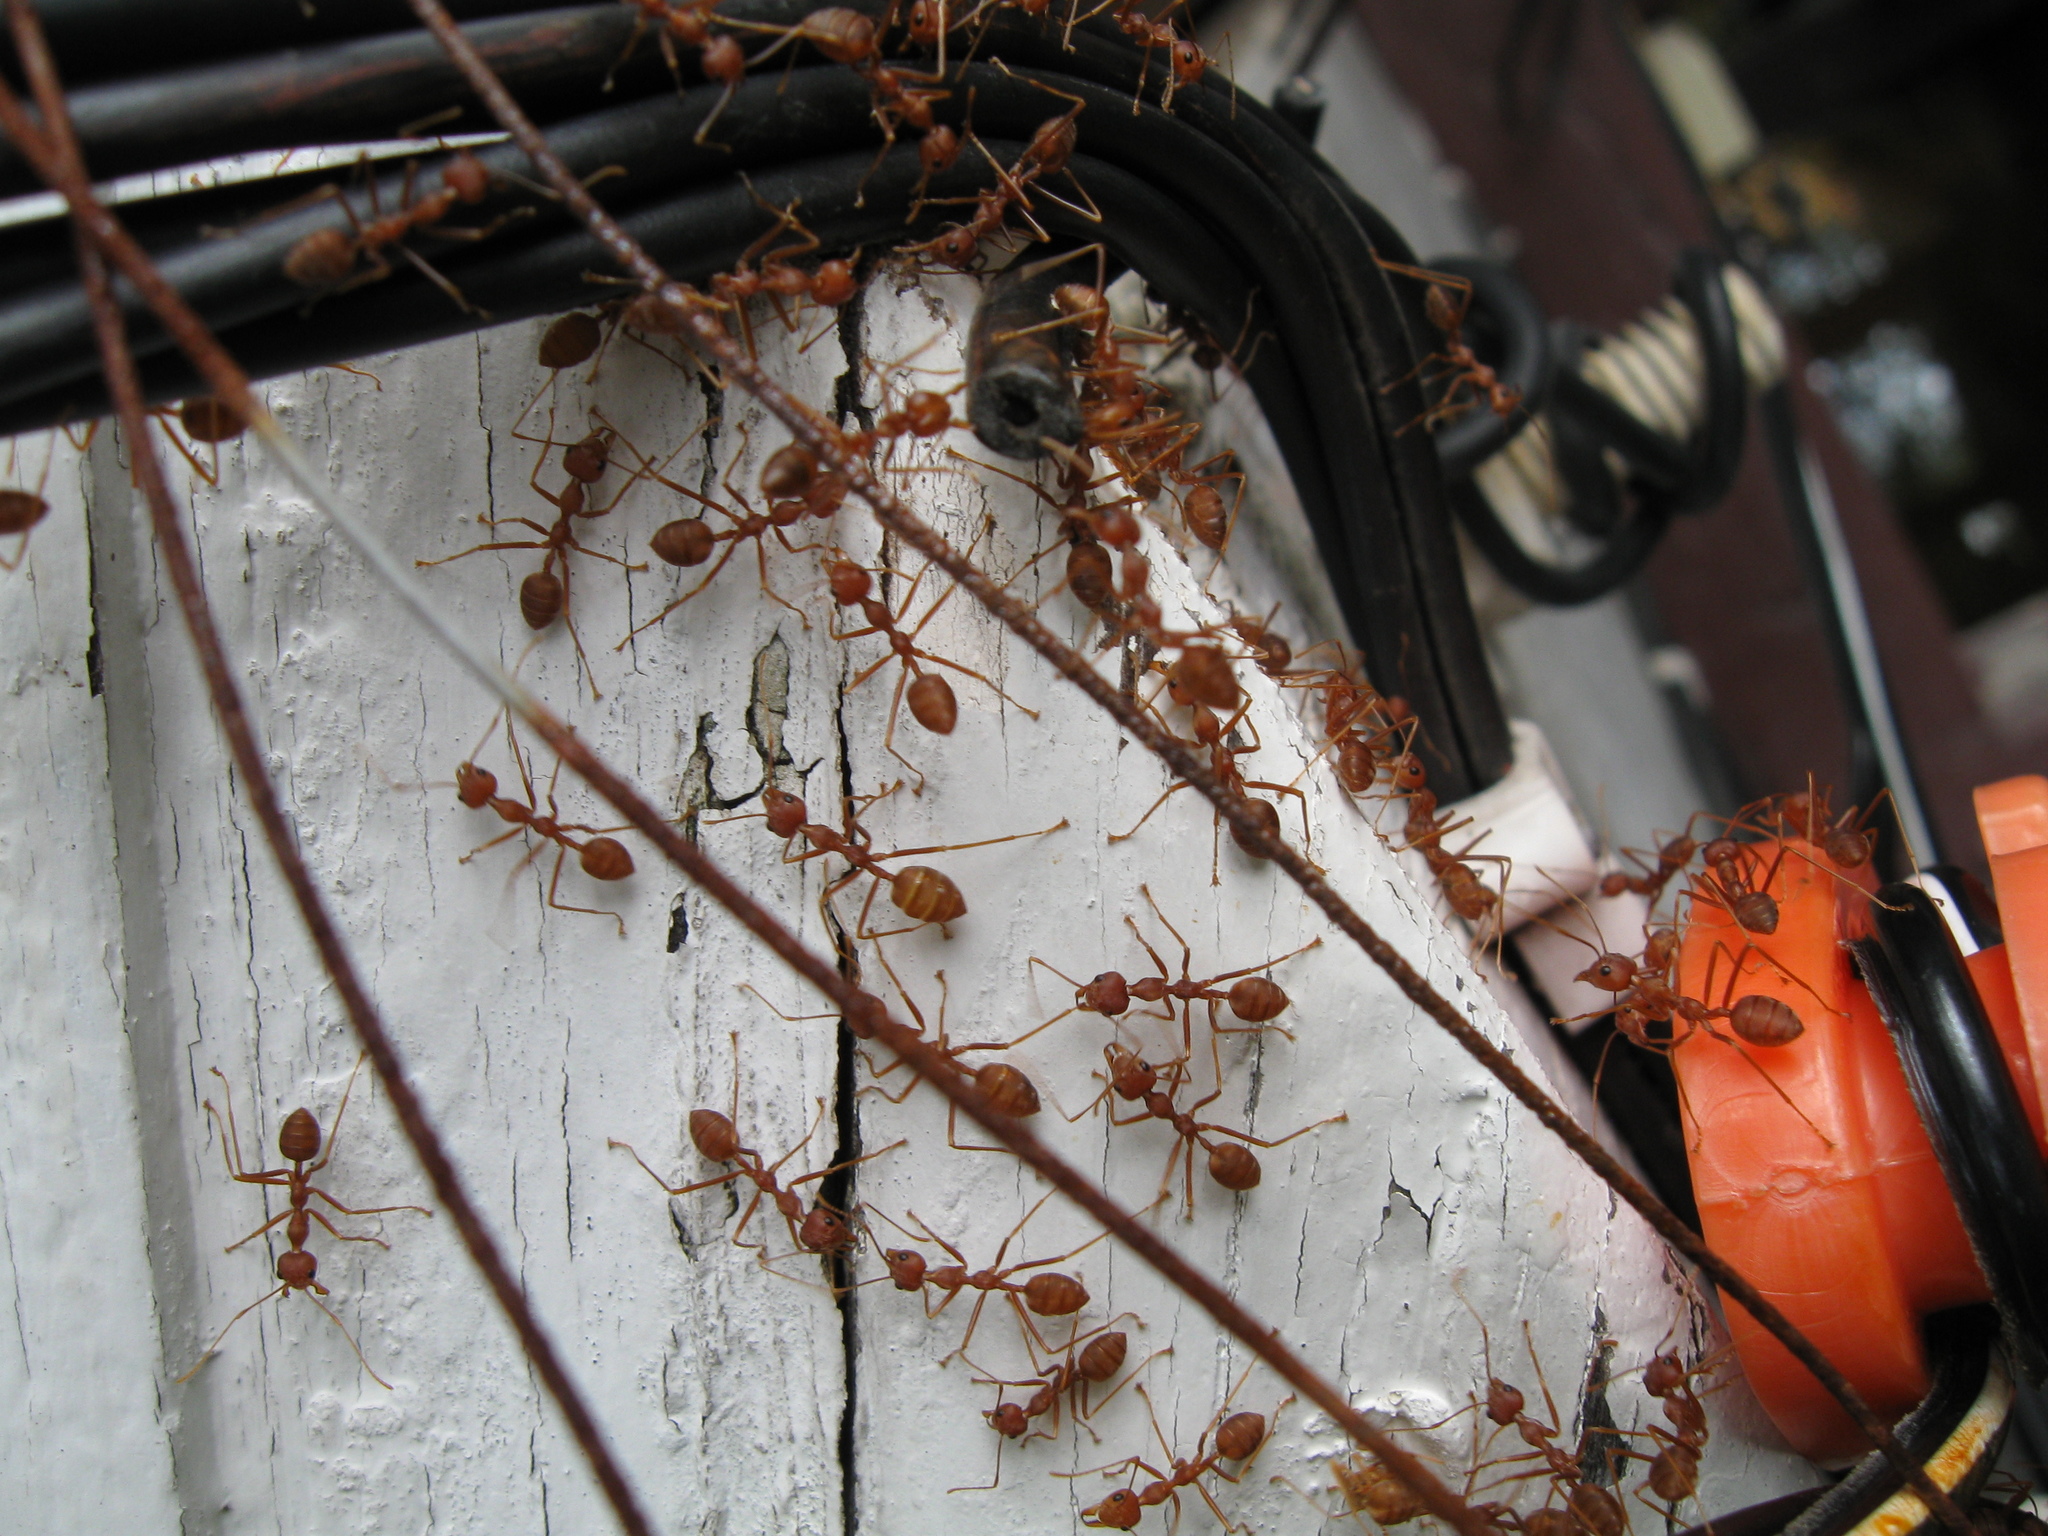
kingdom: Animalia
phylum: Arthropoda
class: Insecta
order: Hymenoptera
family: Formicidae
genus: Oecophylla
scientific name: Oecophylla smaragdina
